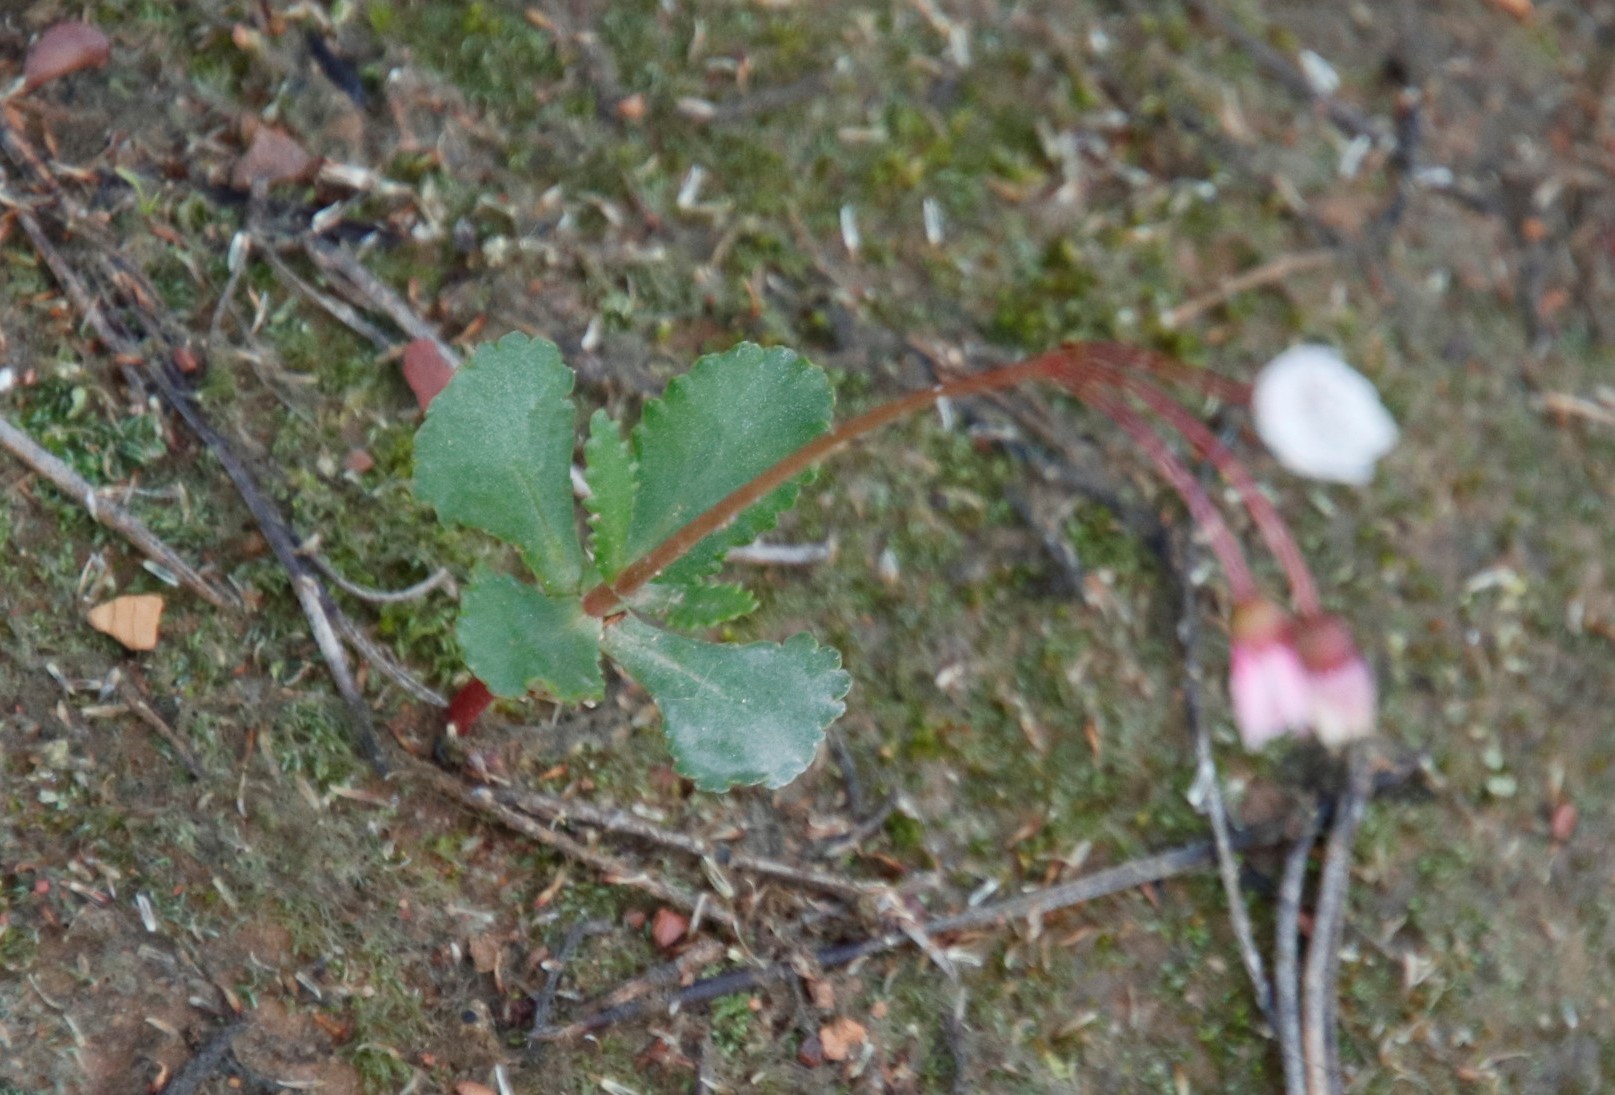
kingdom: Plantae
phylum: Tracheophyta
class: Magnoliopsida
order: Saxifragales
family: Crassulaceae
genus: Crassula
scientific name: Crassula capensis
